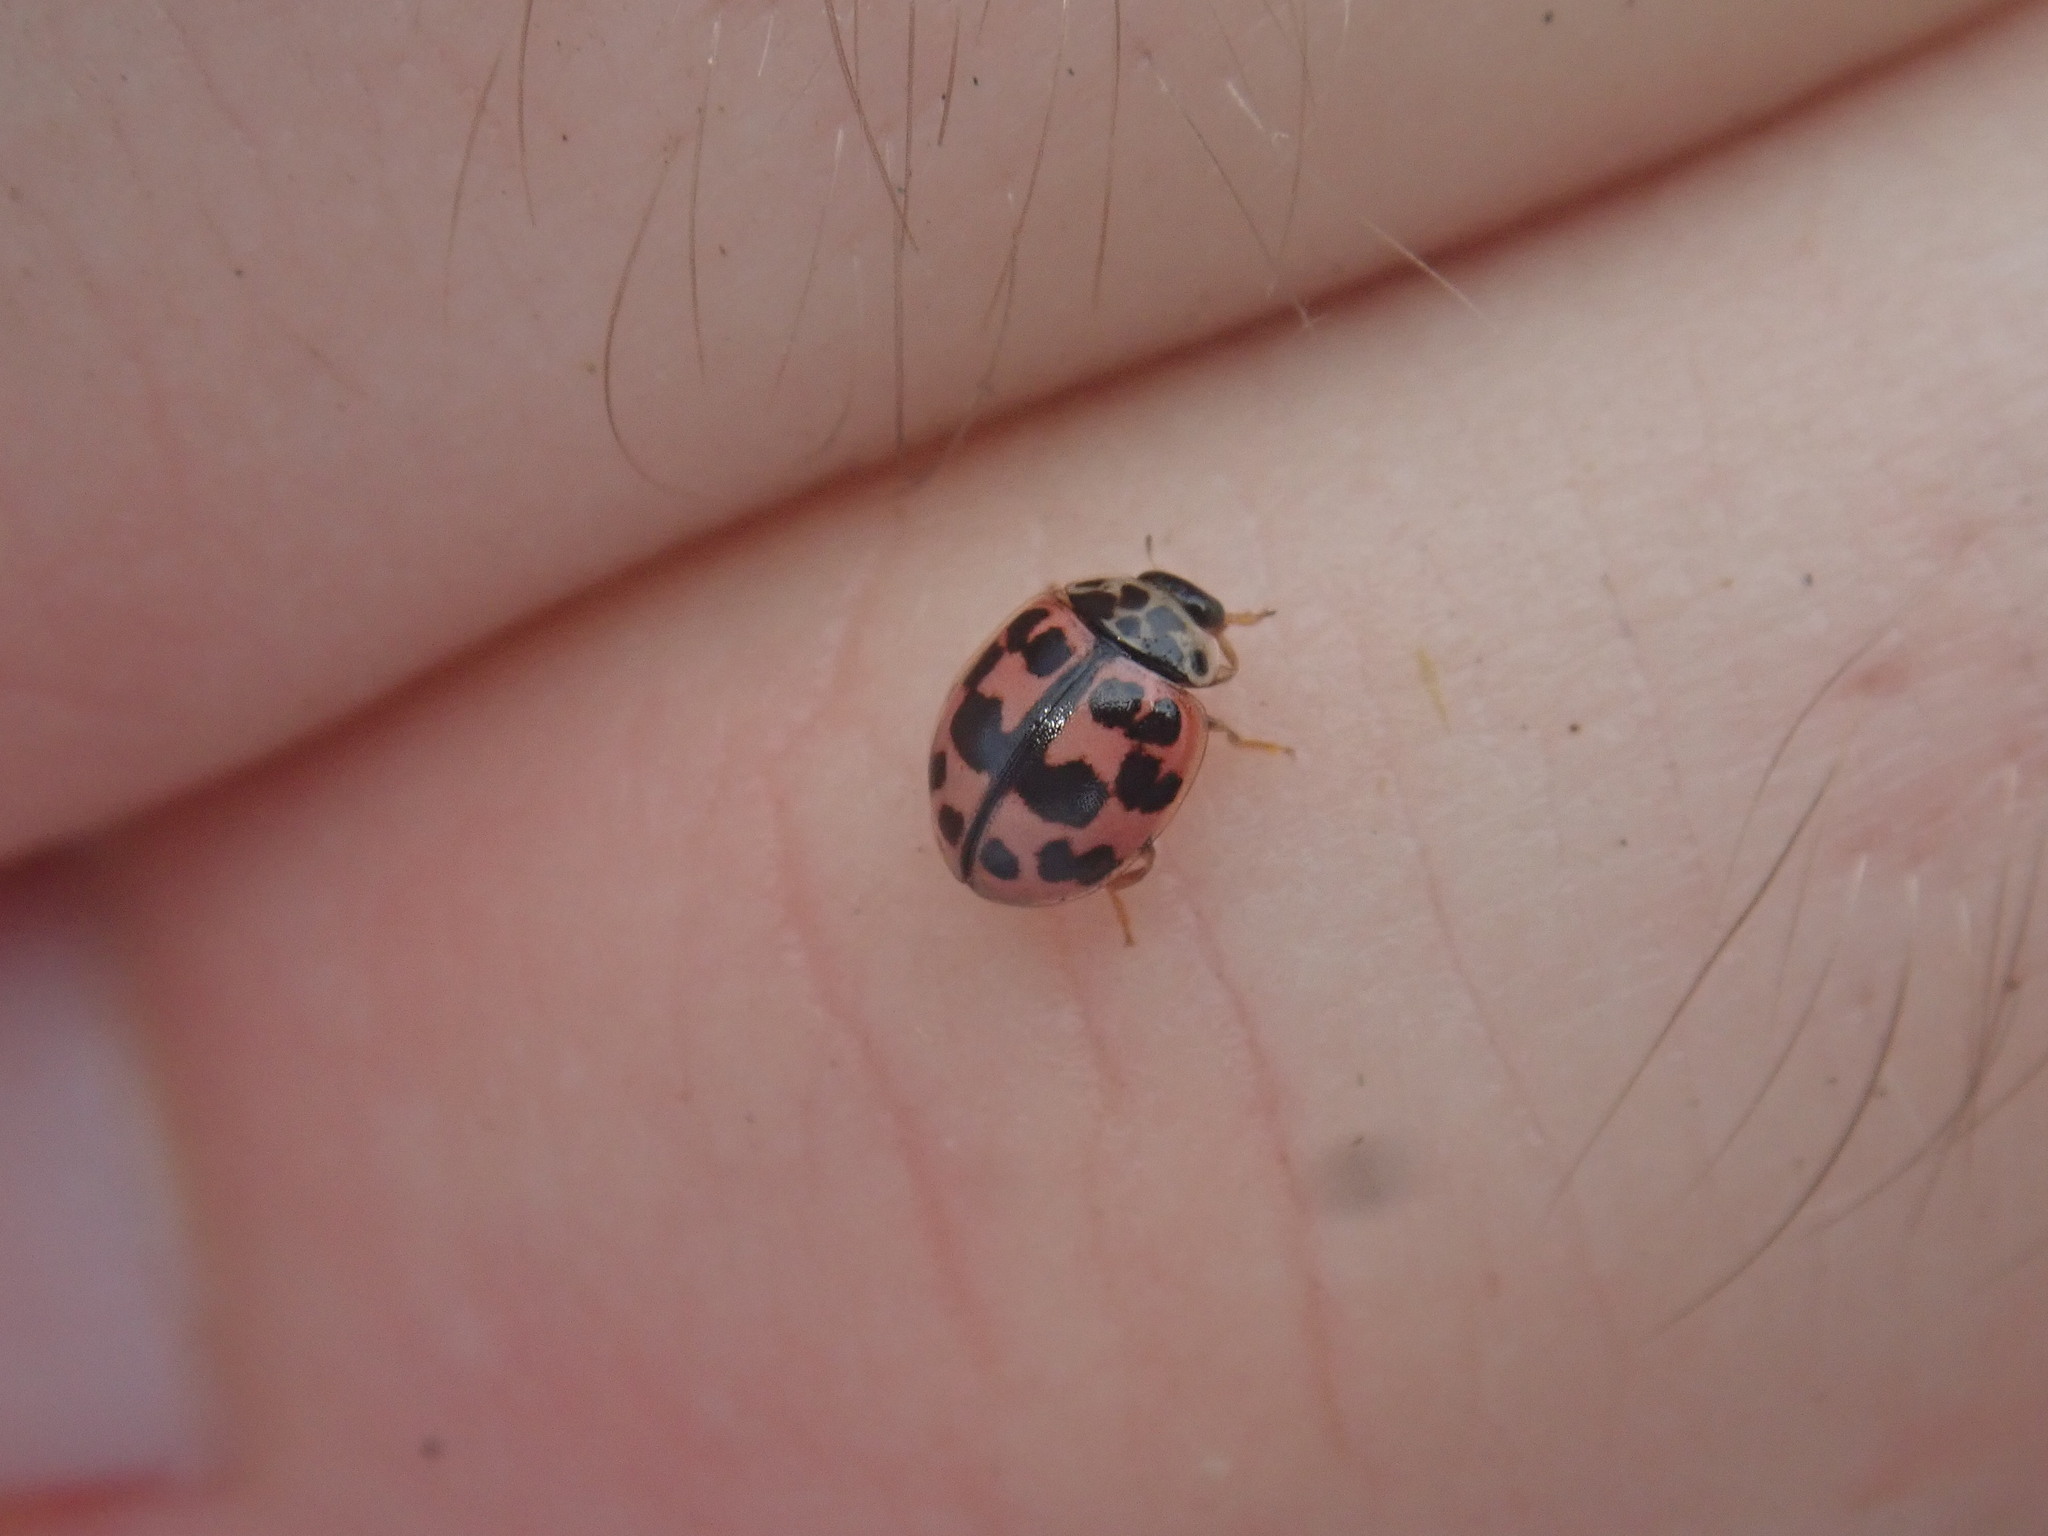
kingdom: Animalia
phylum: Arthropoda
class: Insecta
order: Coleoptera
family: Coccinellidae
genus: Oenopia
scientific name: Oenopia conglobata
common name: Ladybird beetle
